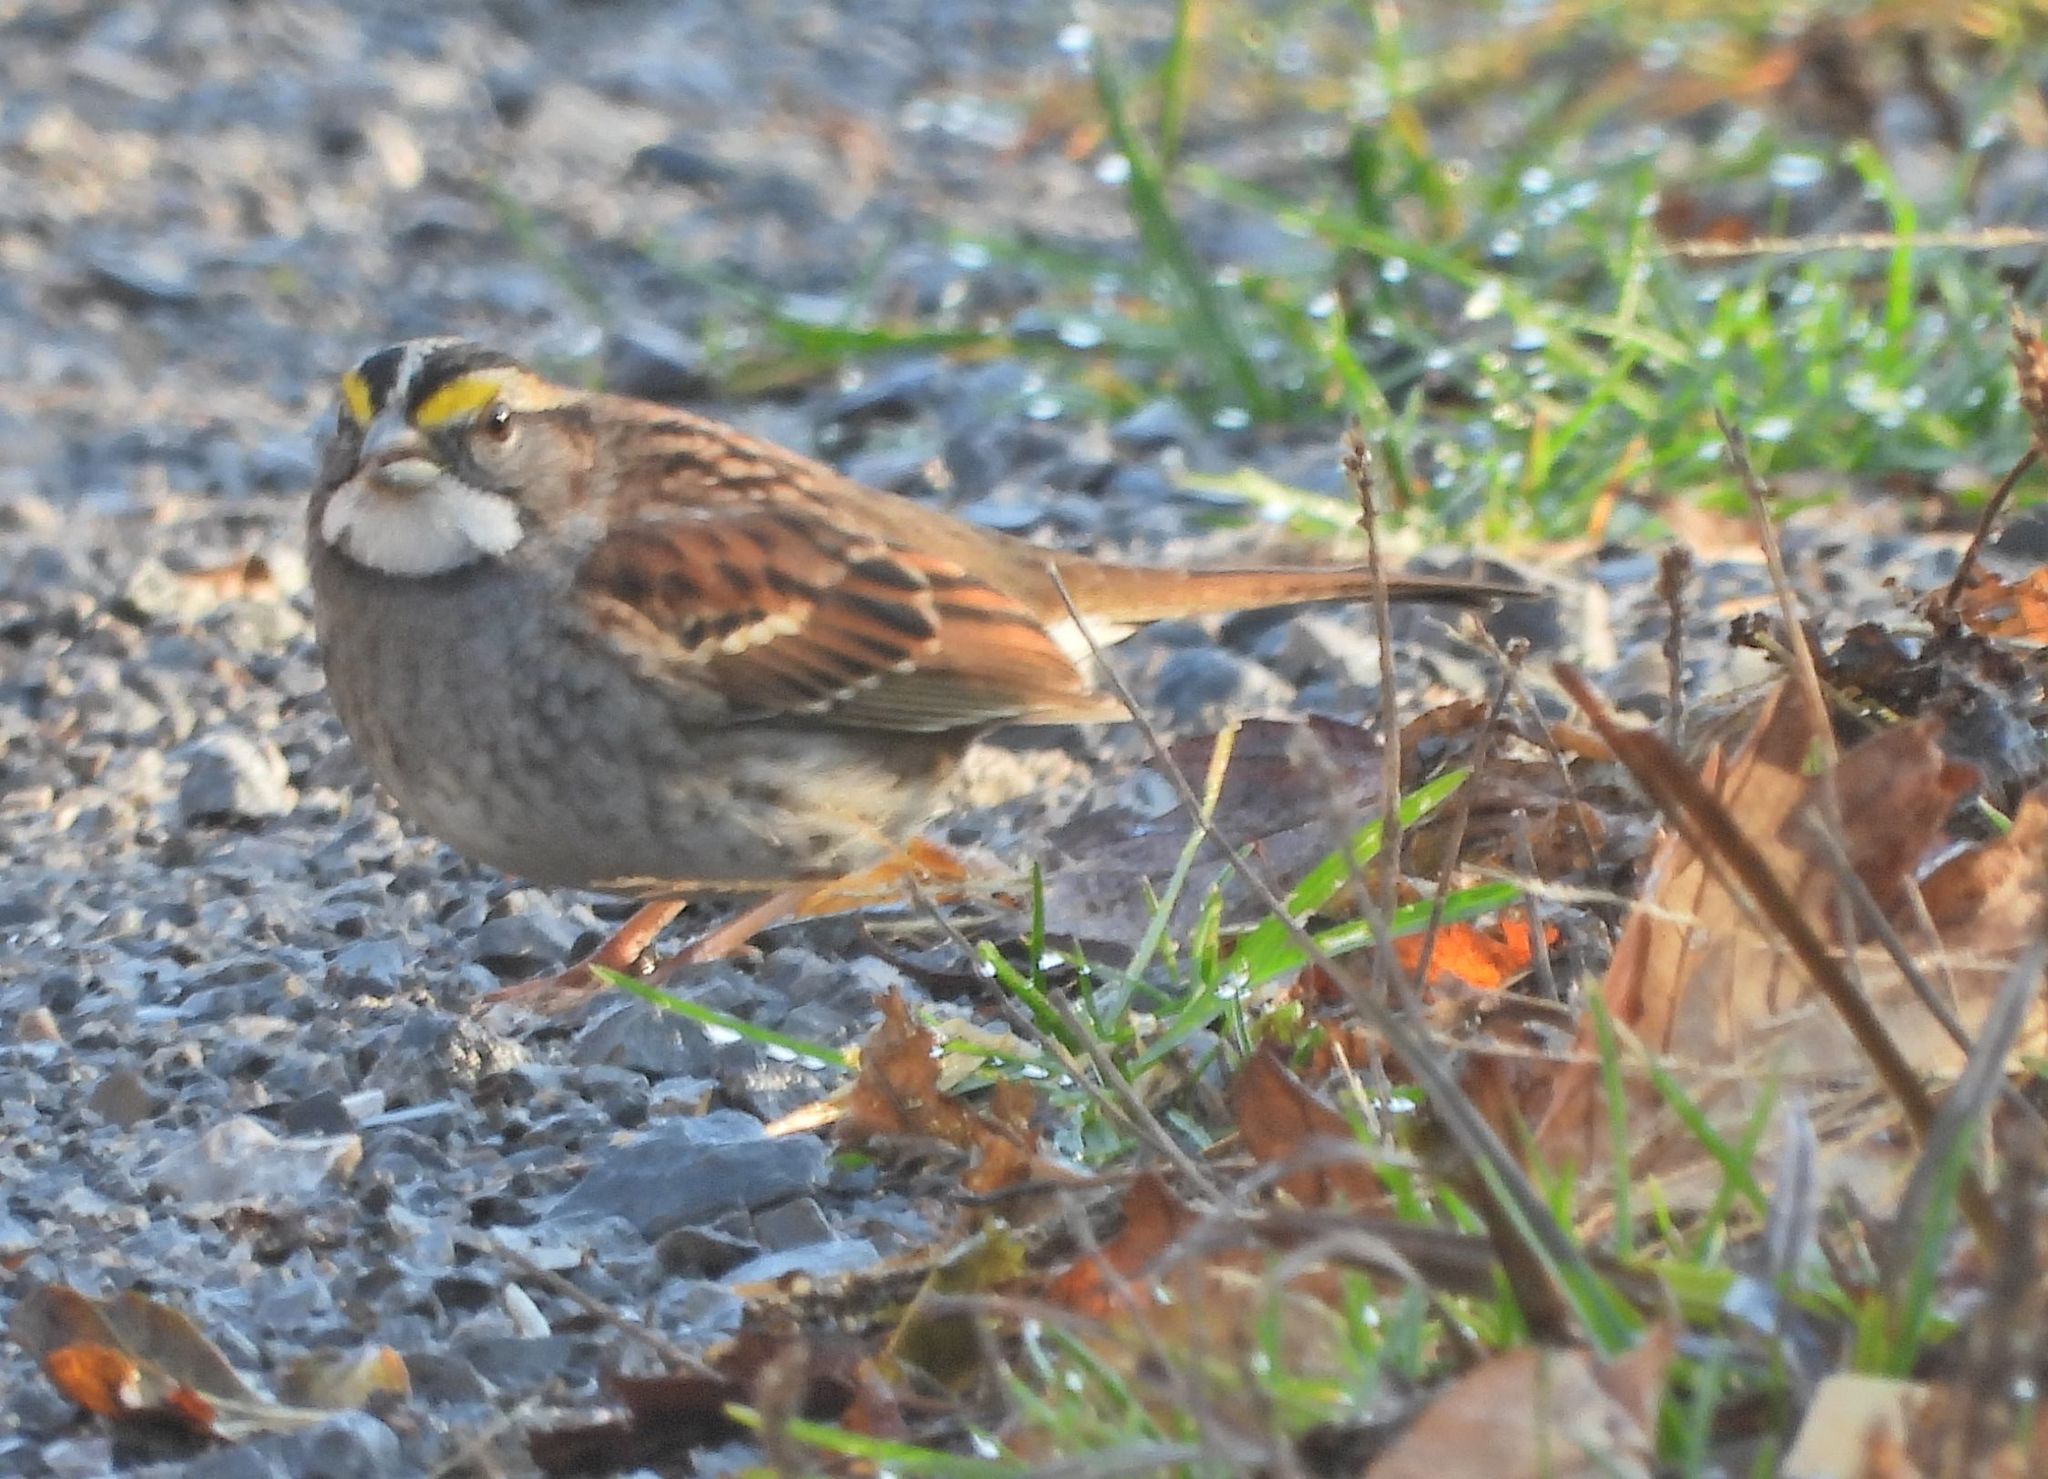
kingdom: Animalia
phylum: Chordata
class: Aves
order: Passeriformes
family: Passerellidae
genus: Zonotrichia
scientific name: Zonotrichia albicollis
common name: White-throated sparrow
